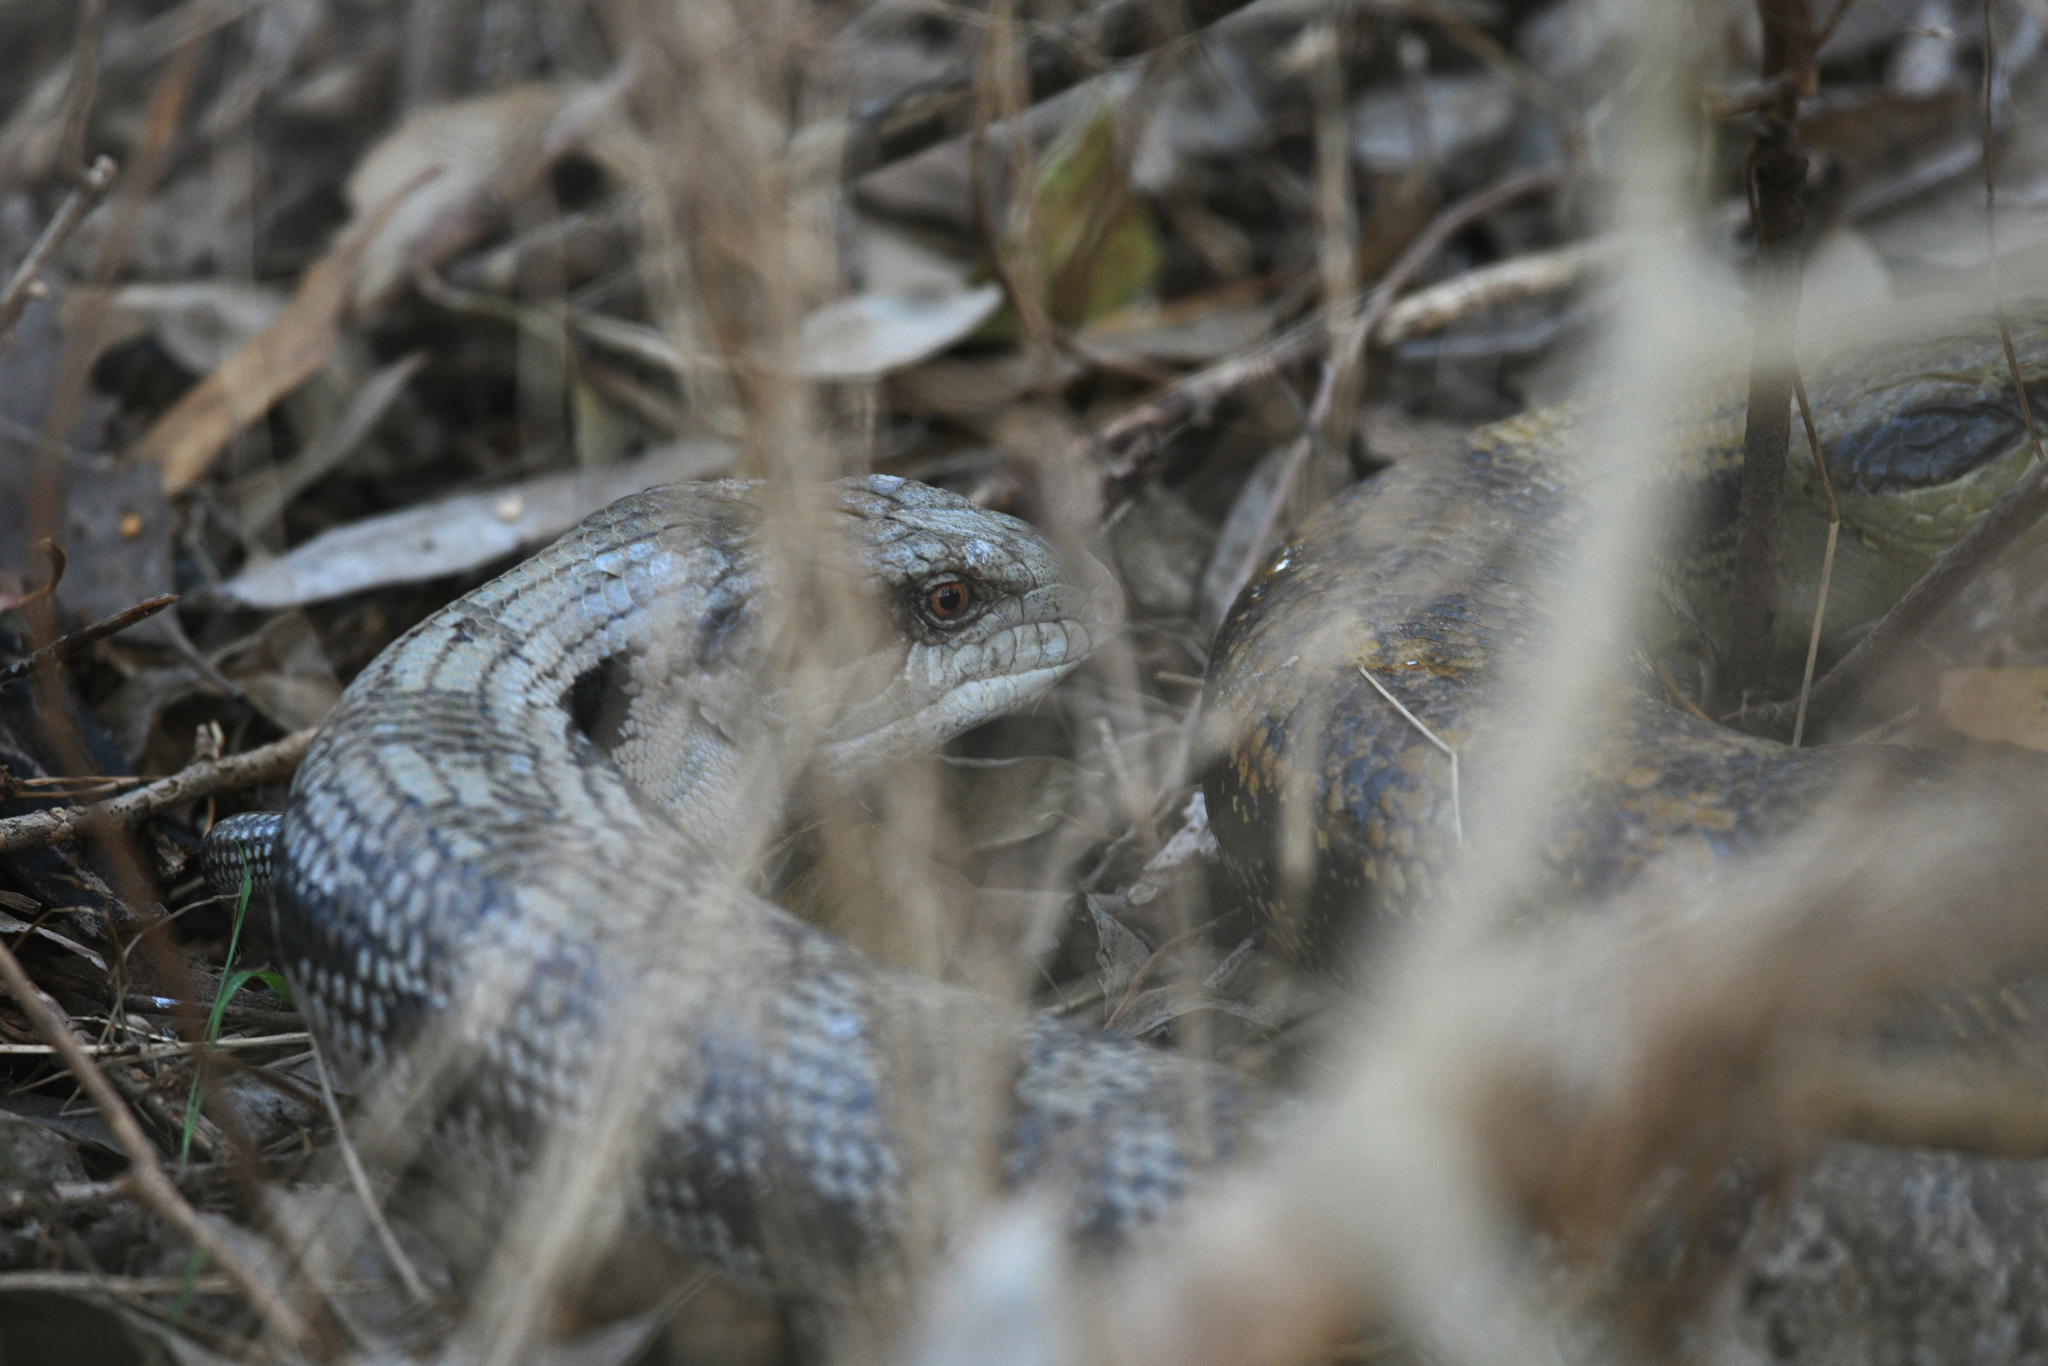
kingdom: Animalia
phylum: Chordata
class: Squamata
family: Scincidae
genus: Tiliqua
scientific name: Tiliqua scincoides
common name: Common bluetongue
